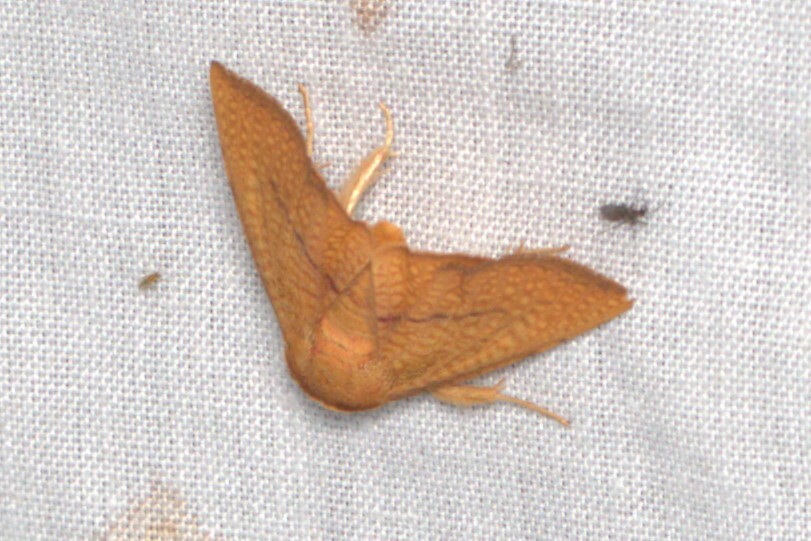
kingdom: Animalia
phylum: Arthropoda
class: Insecta
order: Lepidoptera
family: Thyrididae
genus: Aglaopus
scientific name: Aglaopus pyrrhata
